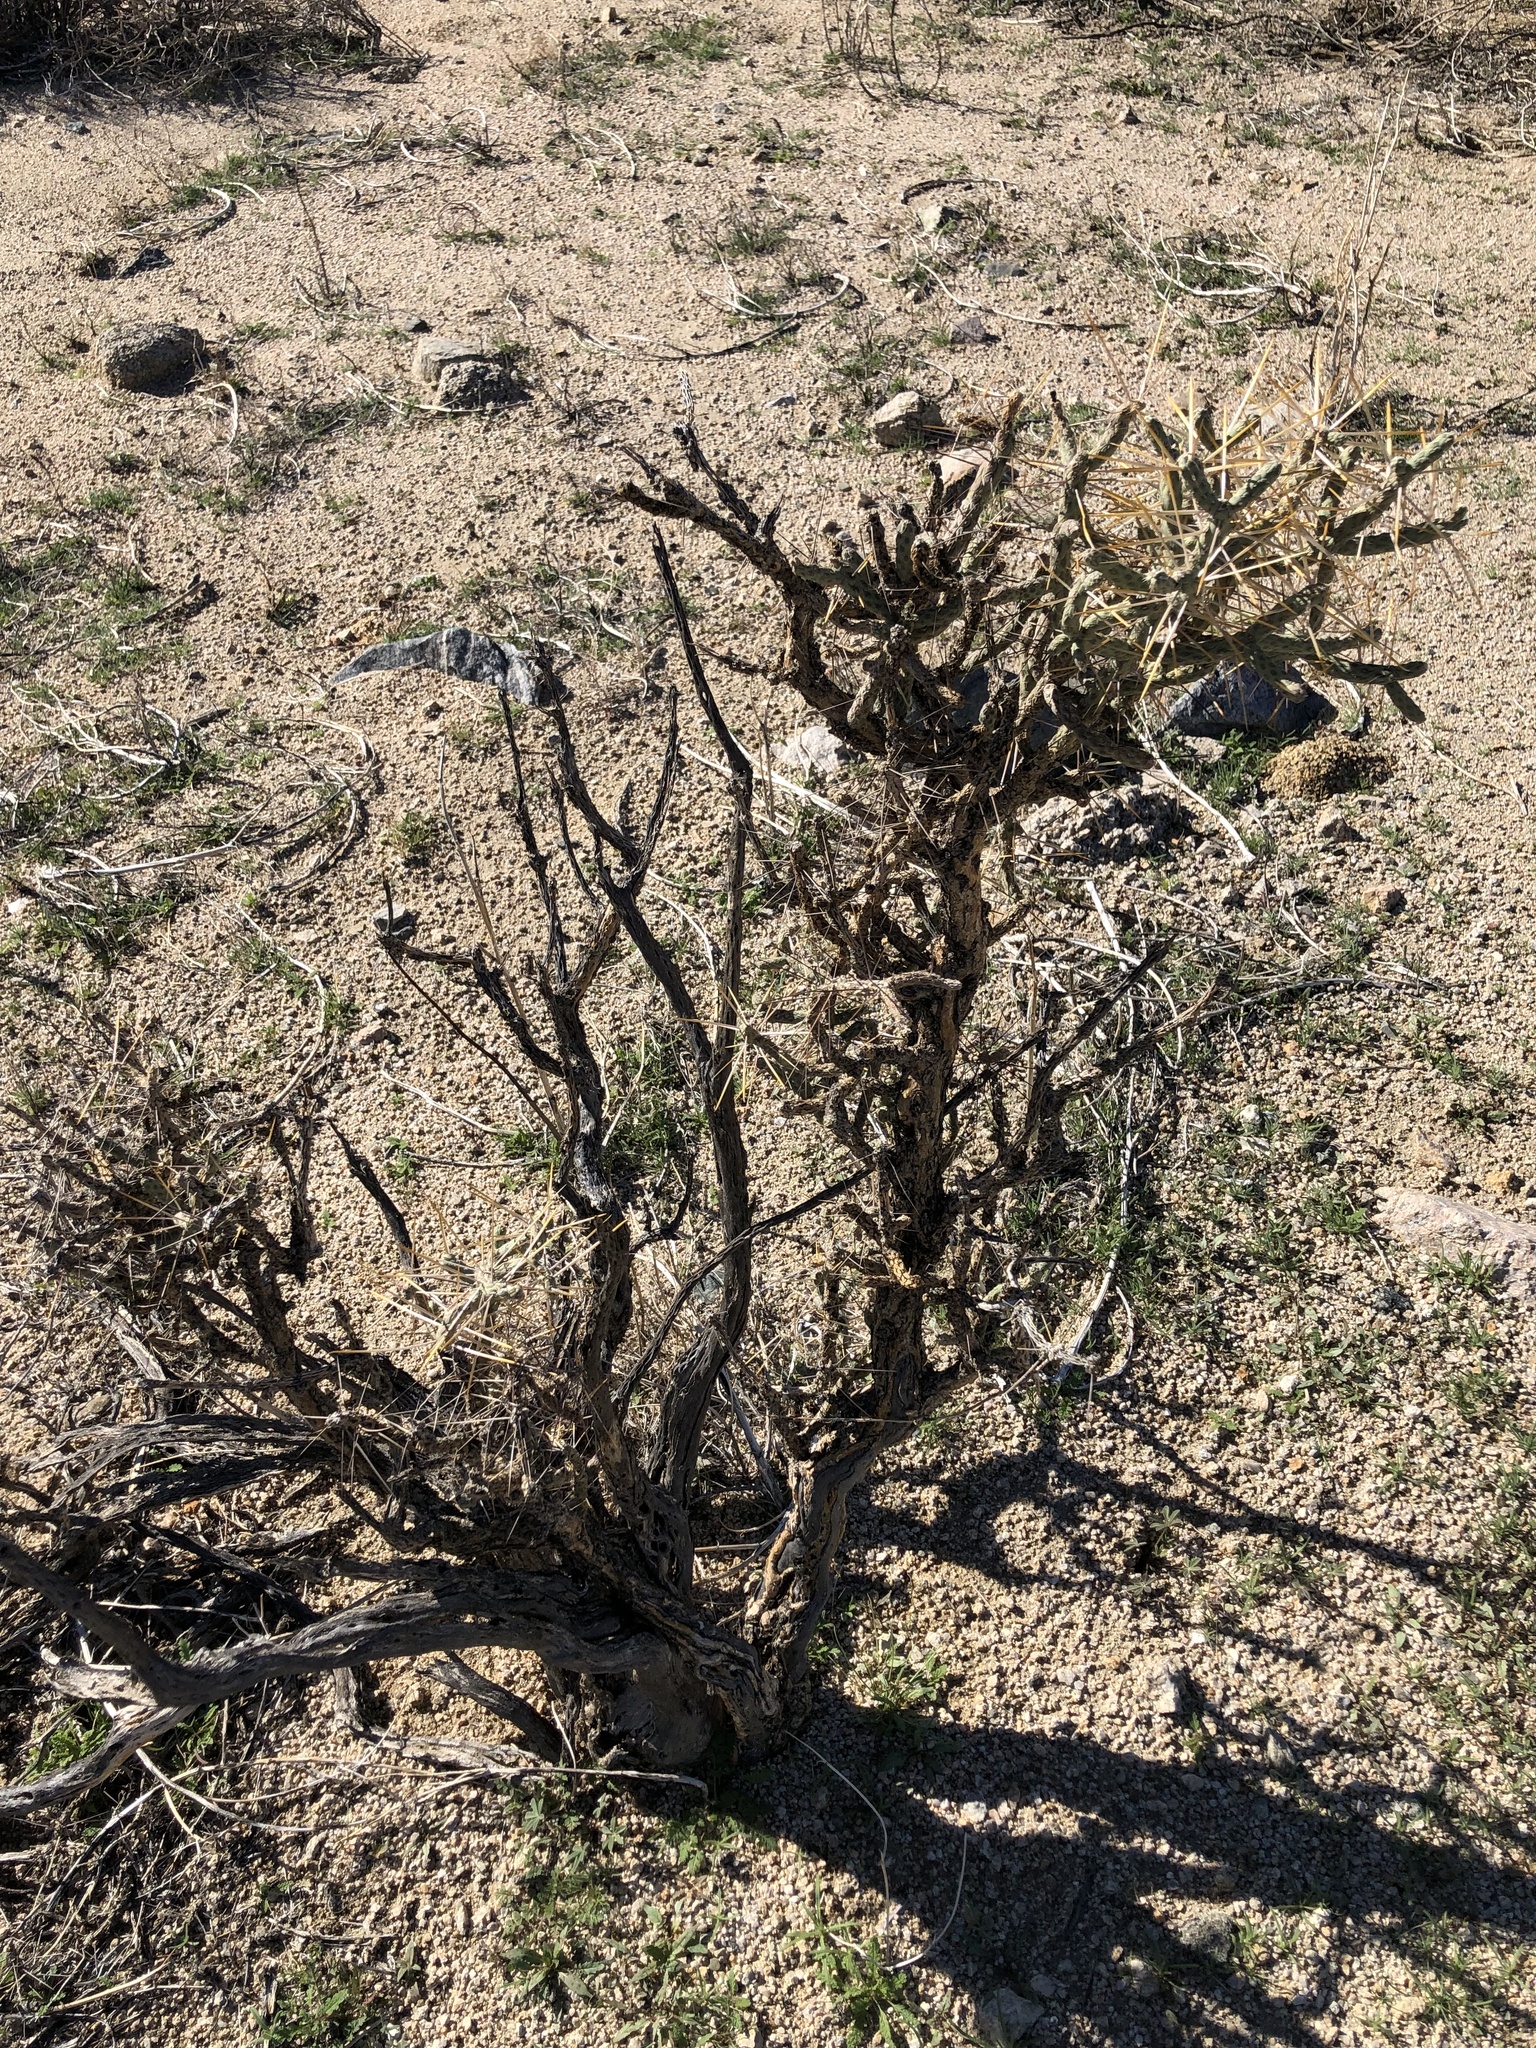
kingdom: Plantae
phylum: Tracheophyta
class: Magnoliopsida
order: Caryophyllales
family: Cactaceae
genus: Cylindropuntia
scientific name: Cylindropuntia ramosissima
